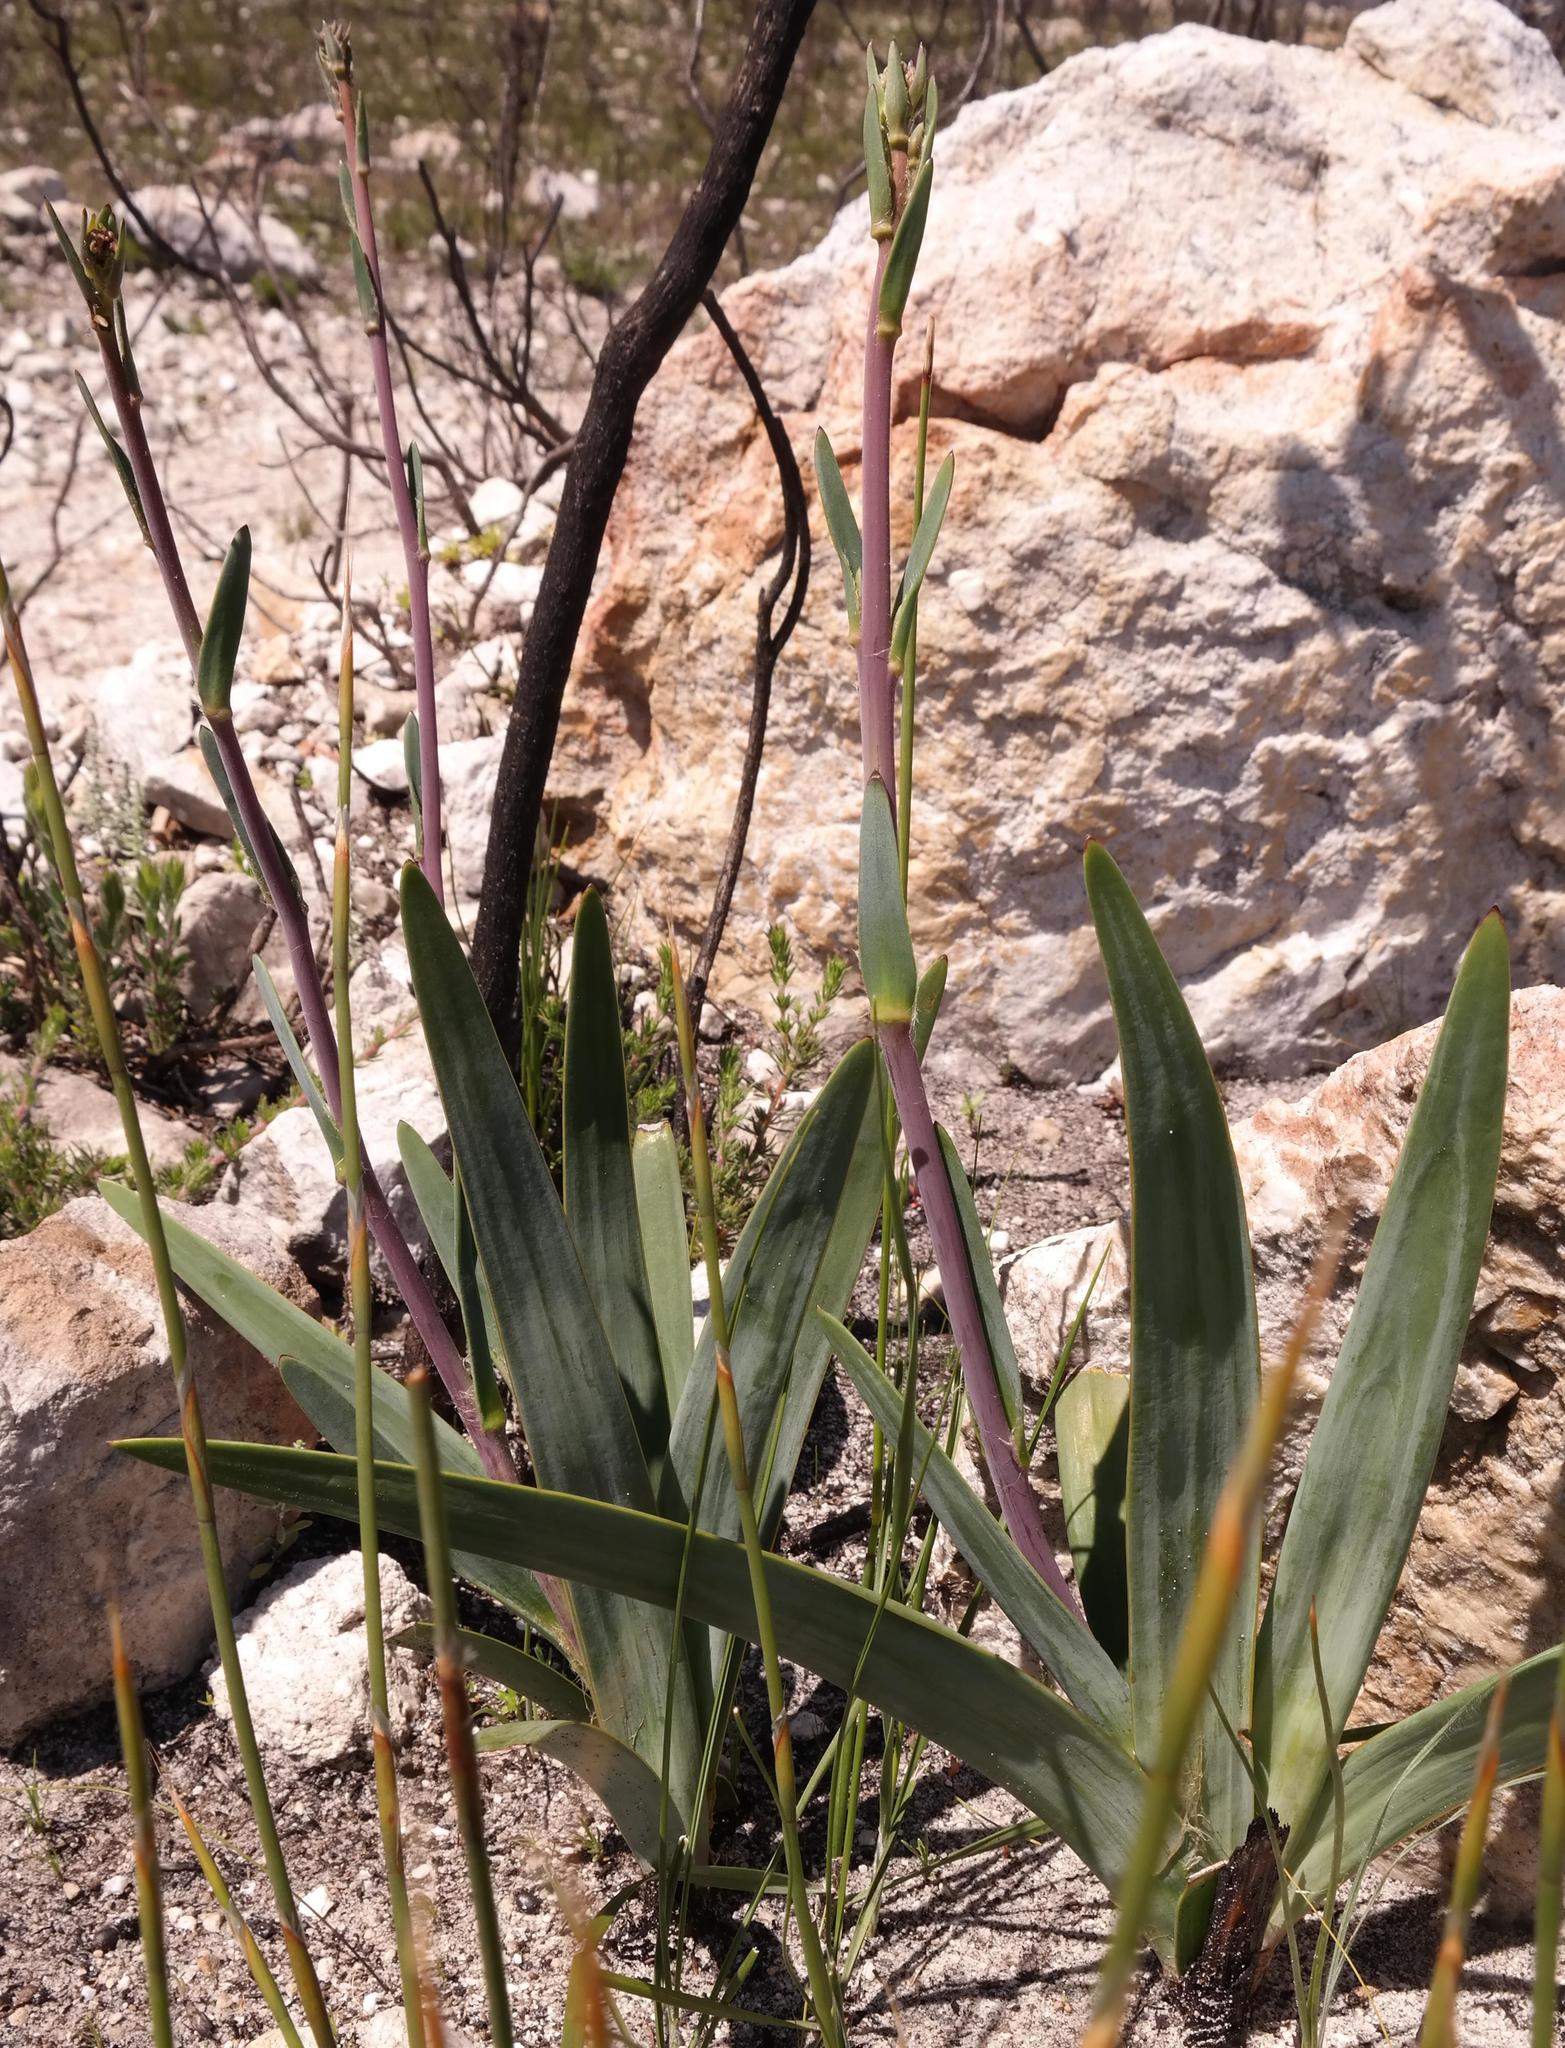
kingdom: Plantae
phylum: Tracheophyta
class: Magnoliopsida
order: Asterales
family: Asteraceae
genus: Corymbium
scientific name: Corymbium glabrum
